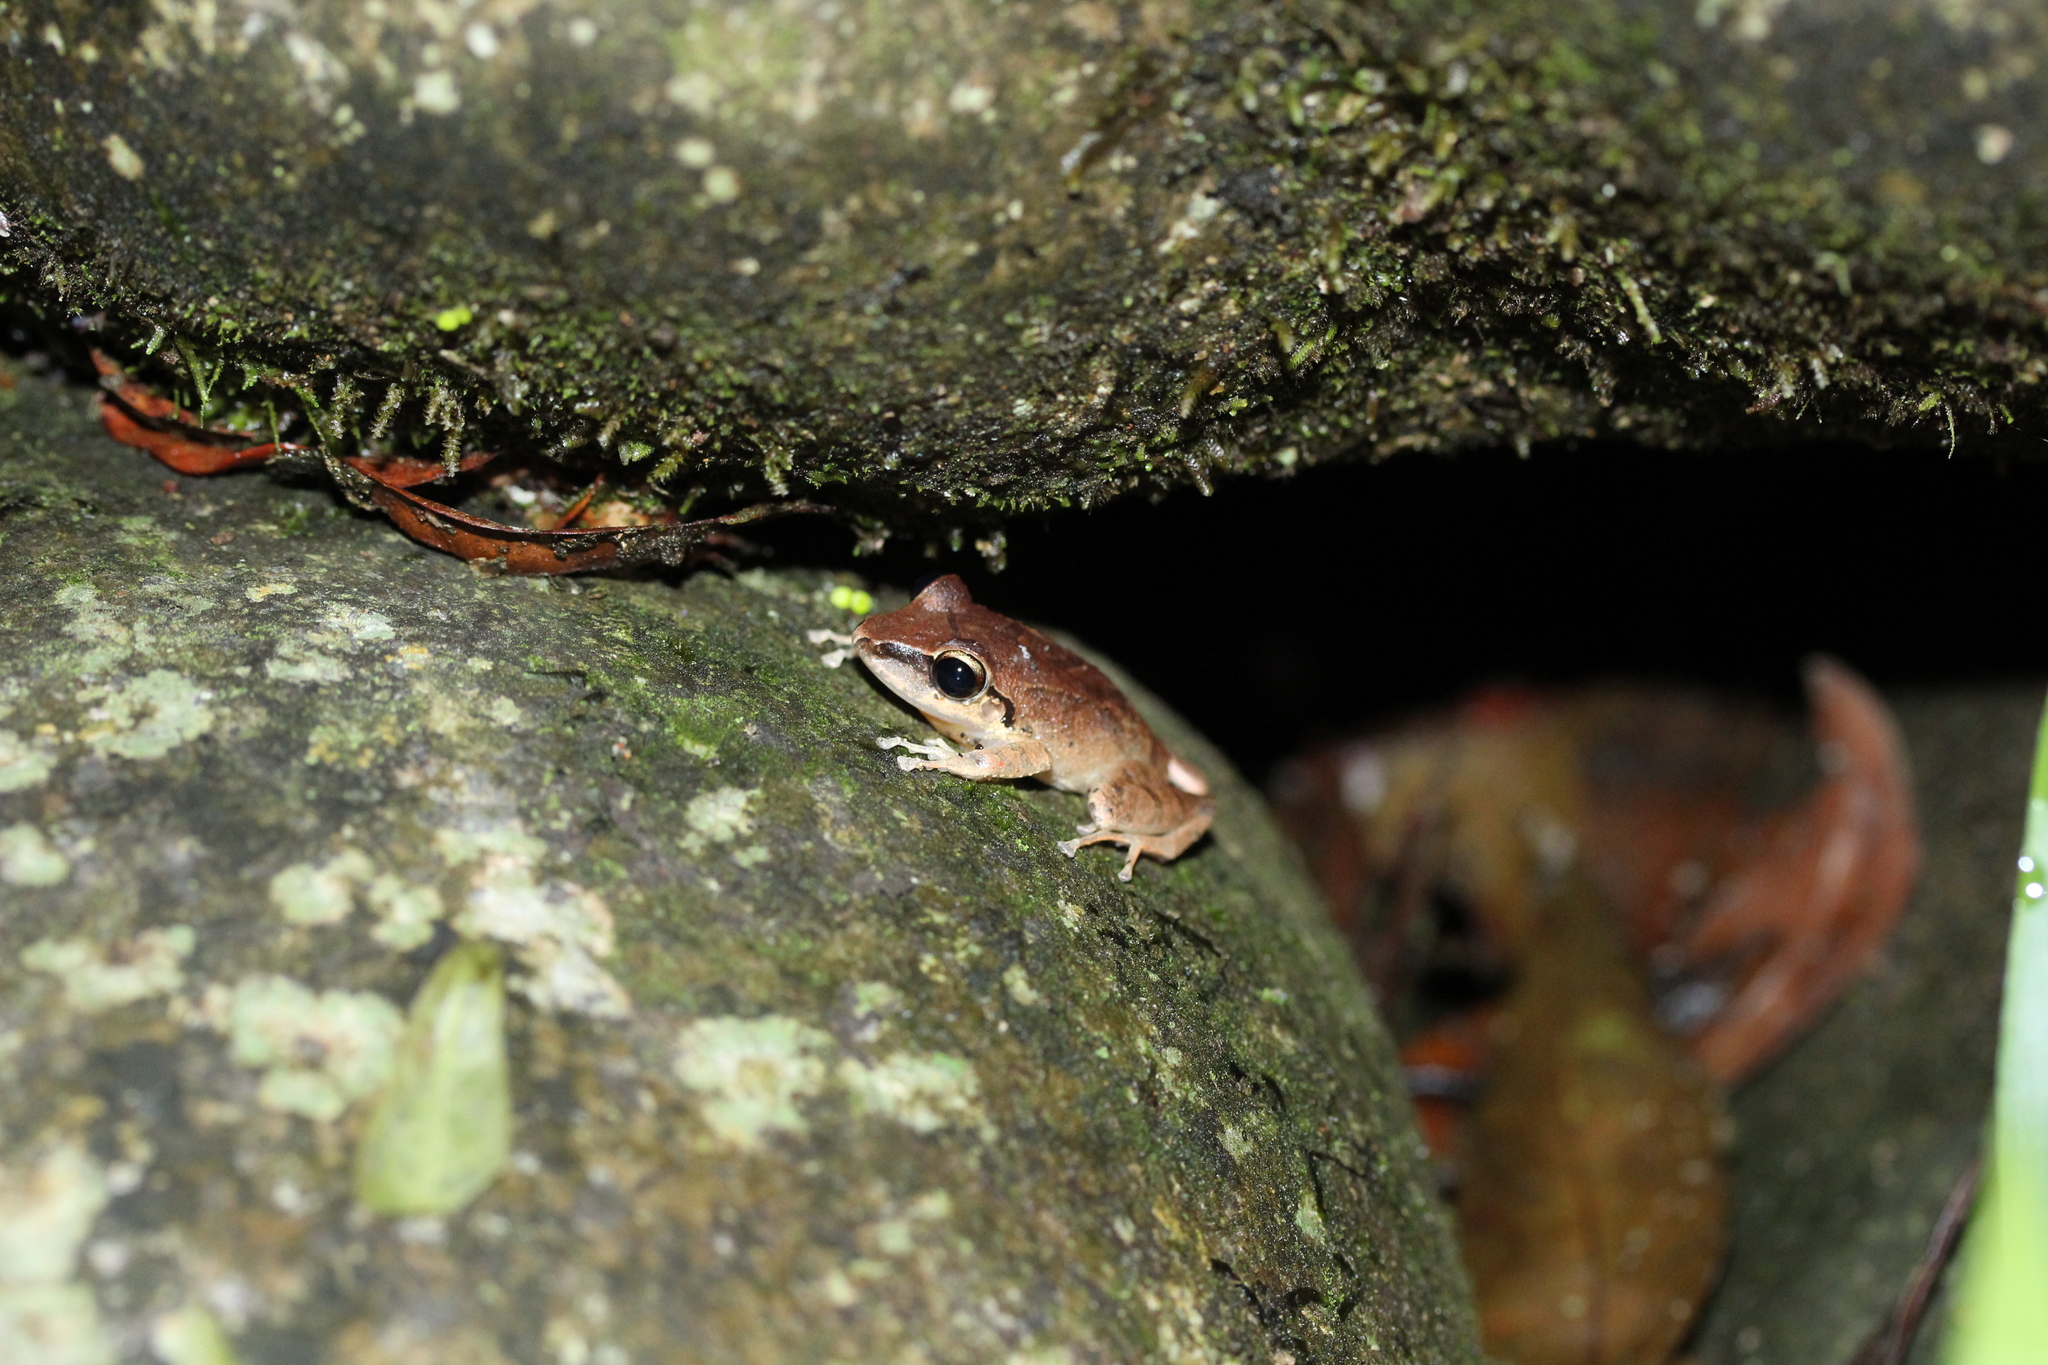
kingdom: Animalia
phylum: Chordata
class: Amphibia
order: Anura
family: Craugastoridae
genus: Pristimantis
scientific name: Pristimantis achatinus
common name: Cachabi robber frog
